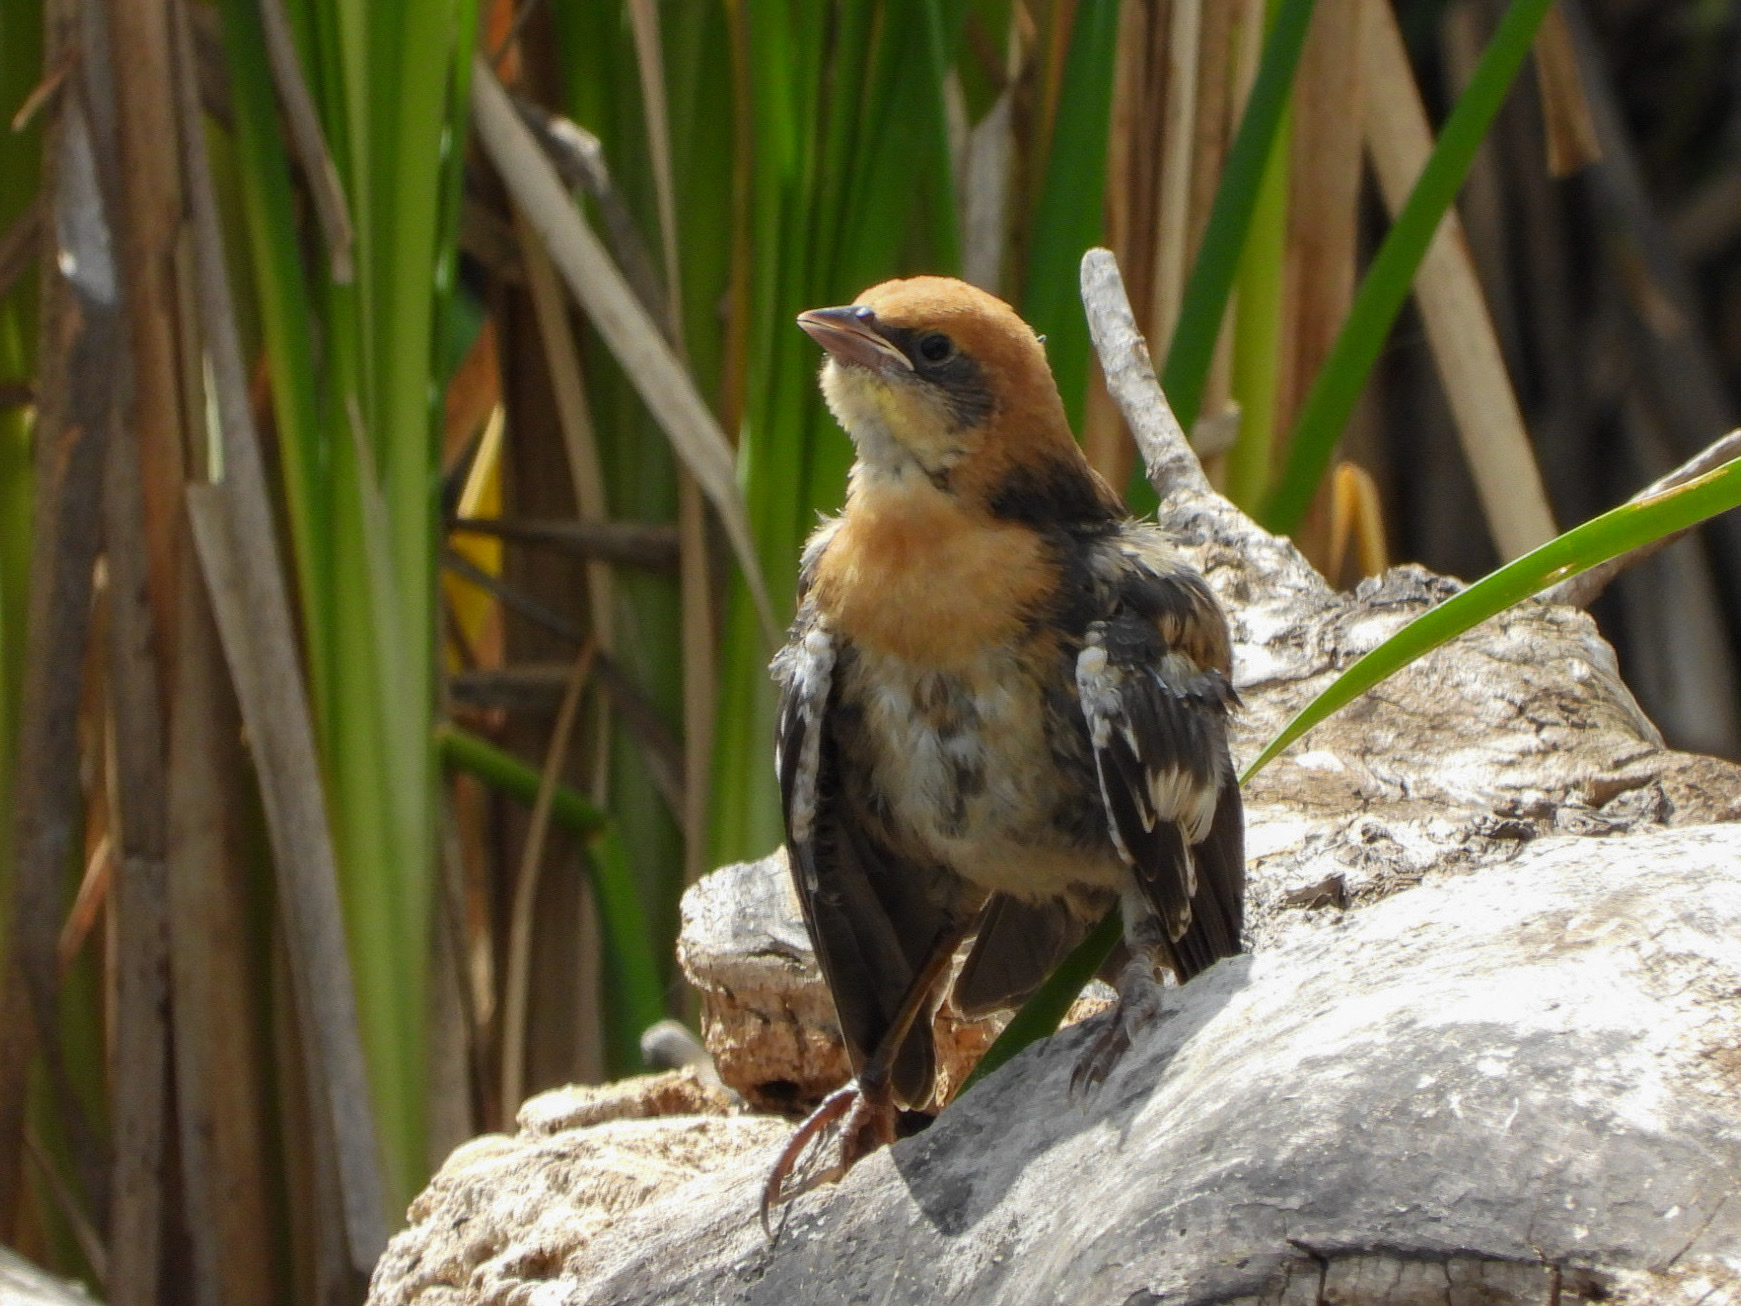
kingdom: Animalia
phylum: Chordata
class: Aves
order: Passeriformes
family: Icteridae
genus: Xanthocephalus
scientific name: Xanthocephalus xanthocephalus
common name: Yellow-headed blackbird
